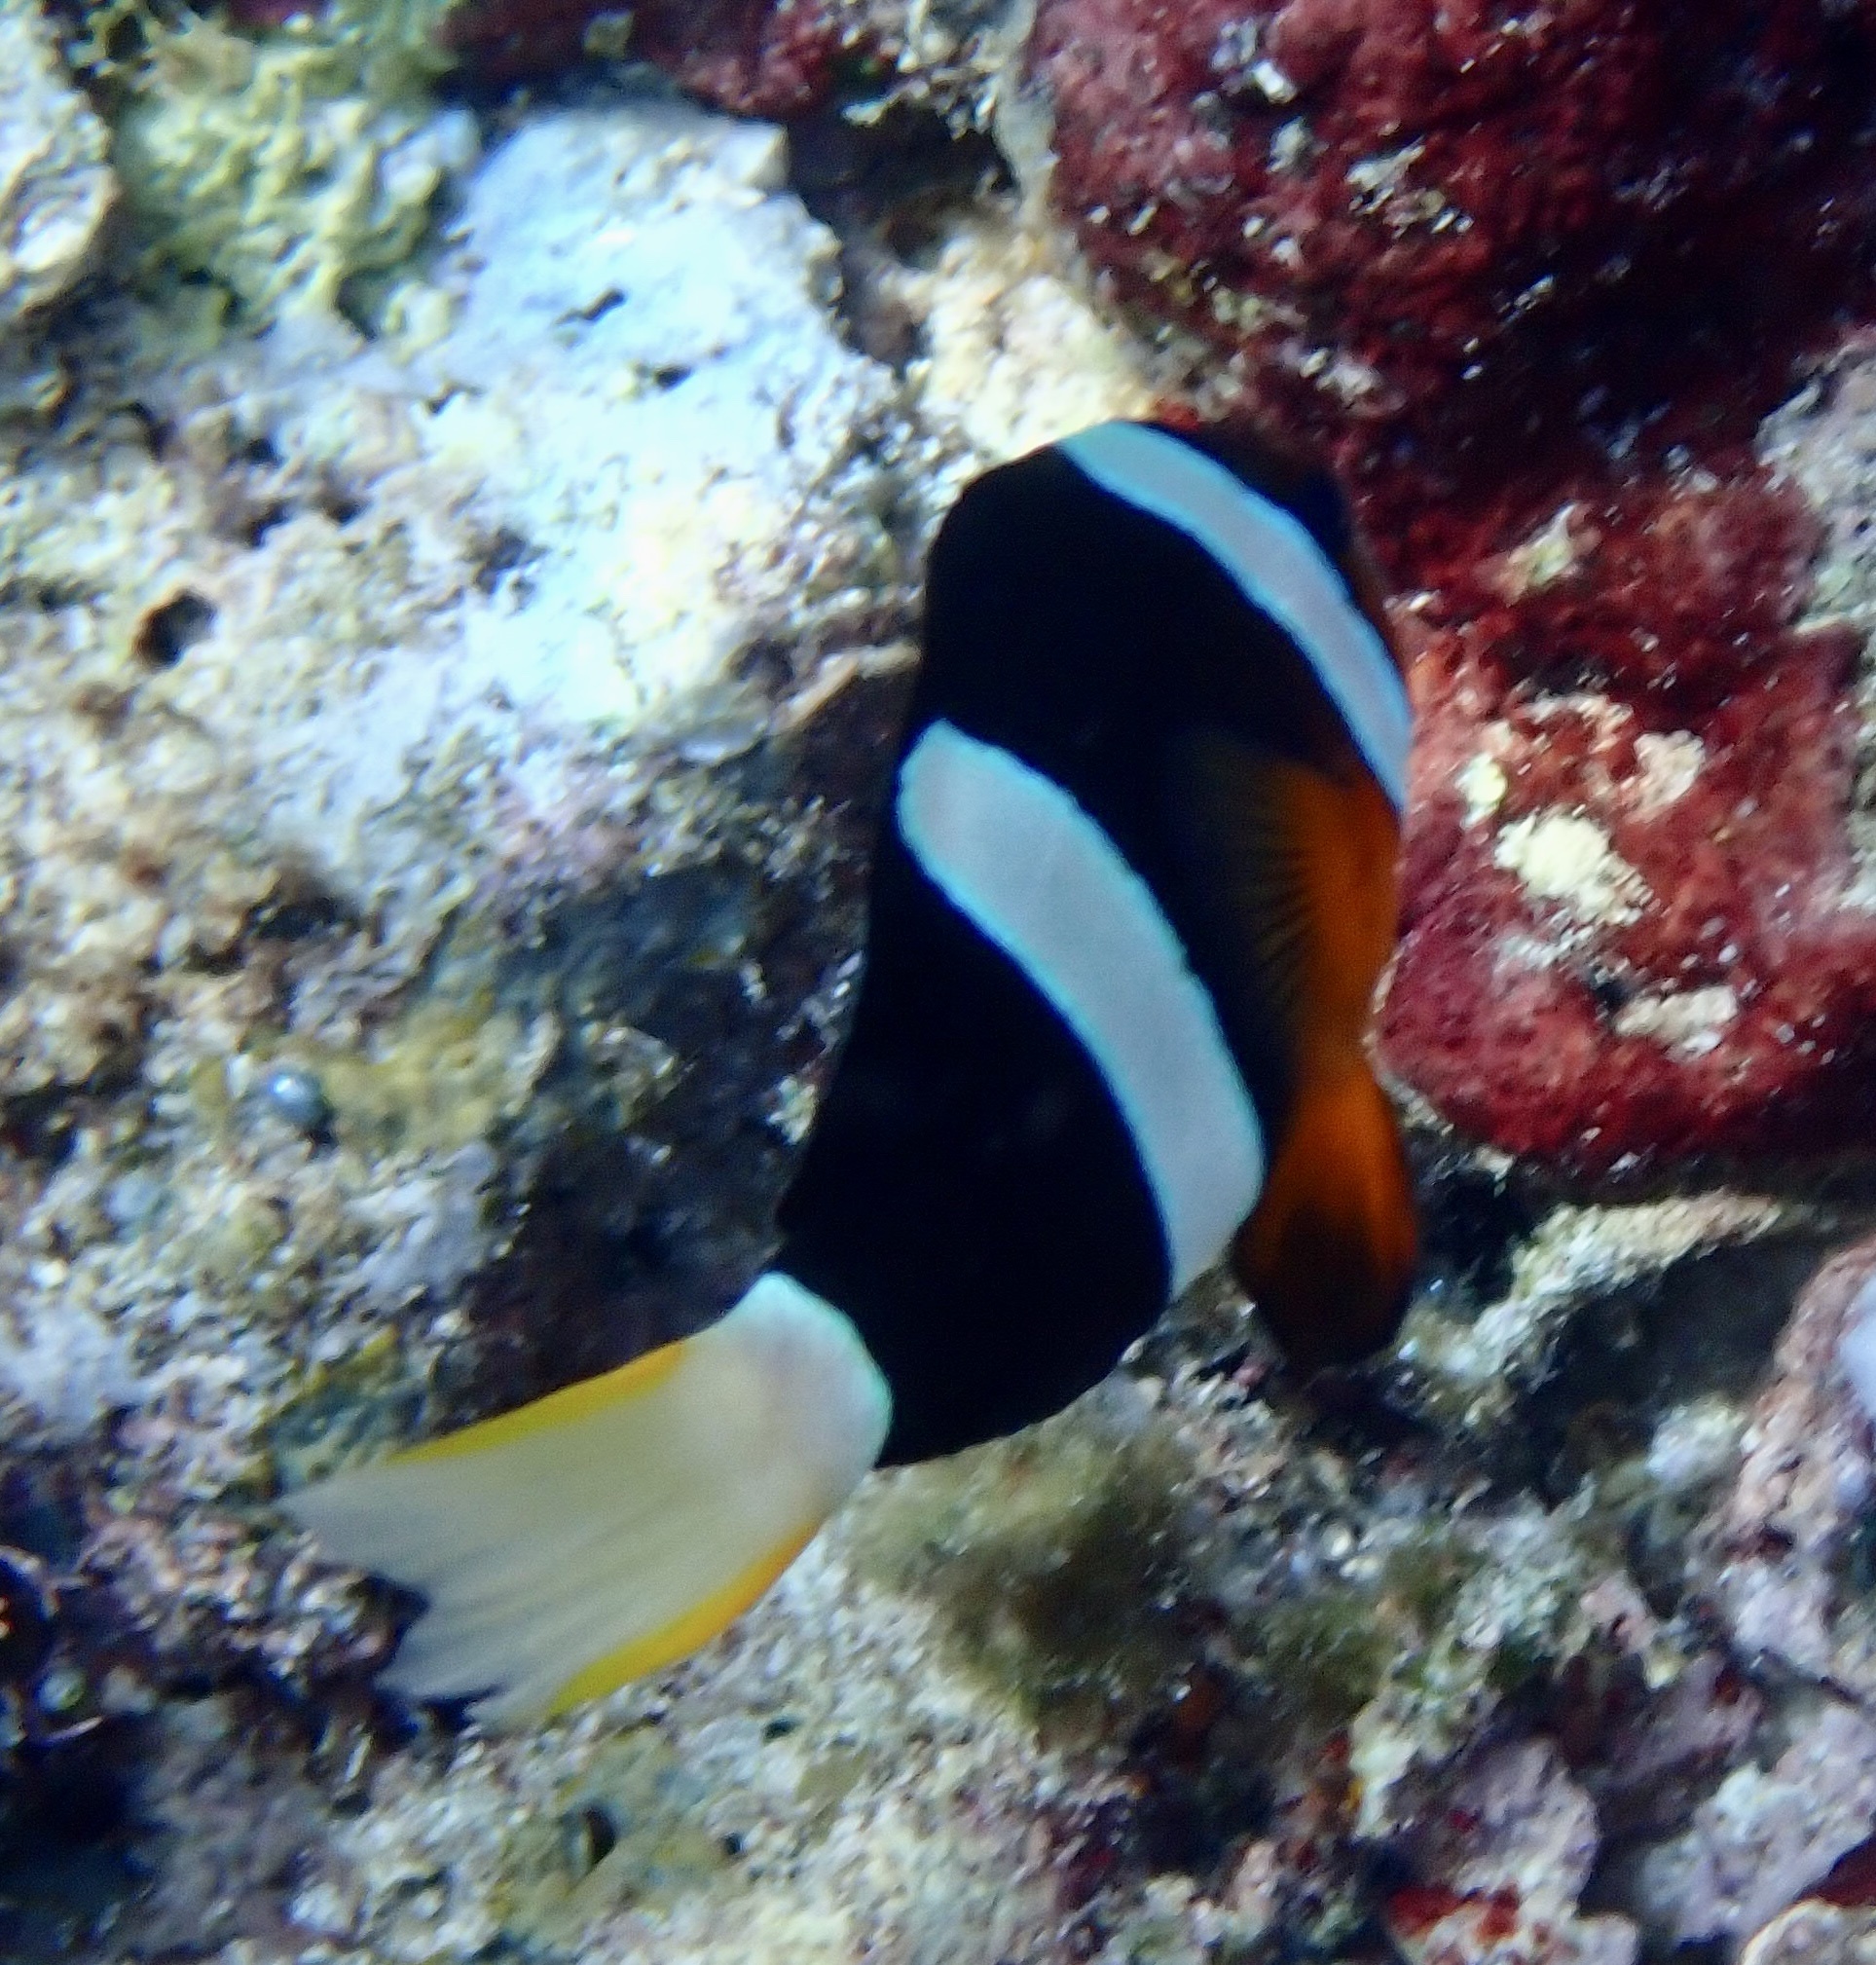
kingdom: Animalia
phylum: Chordata
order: Perciformes
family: Pomacentridae
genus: Amphiprion
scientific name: Amphiprion clarkii
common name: Clark's anemonefish
